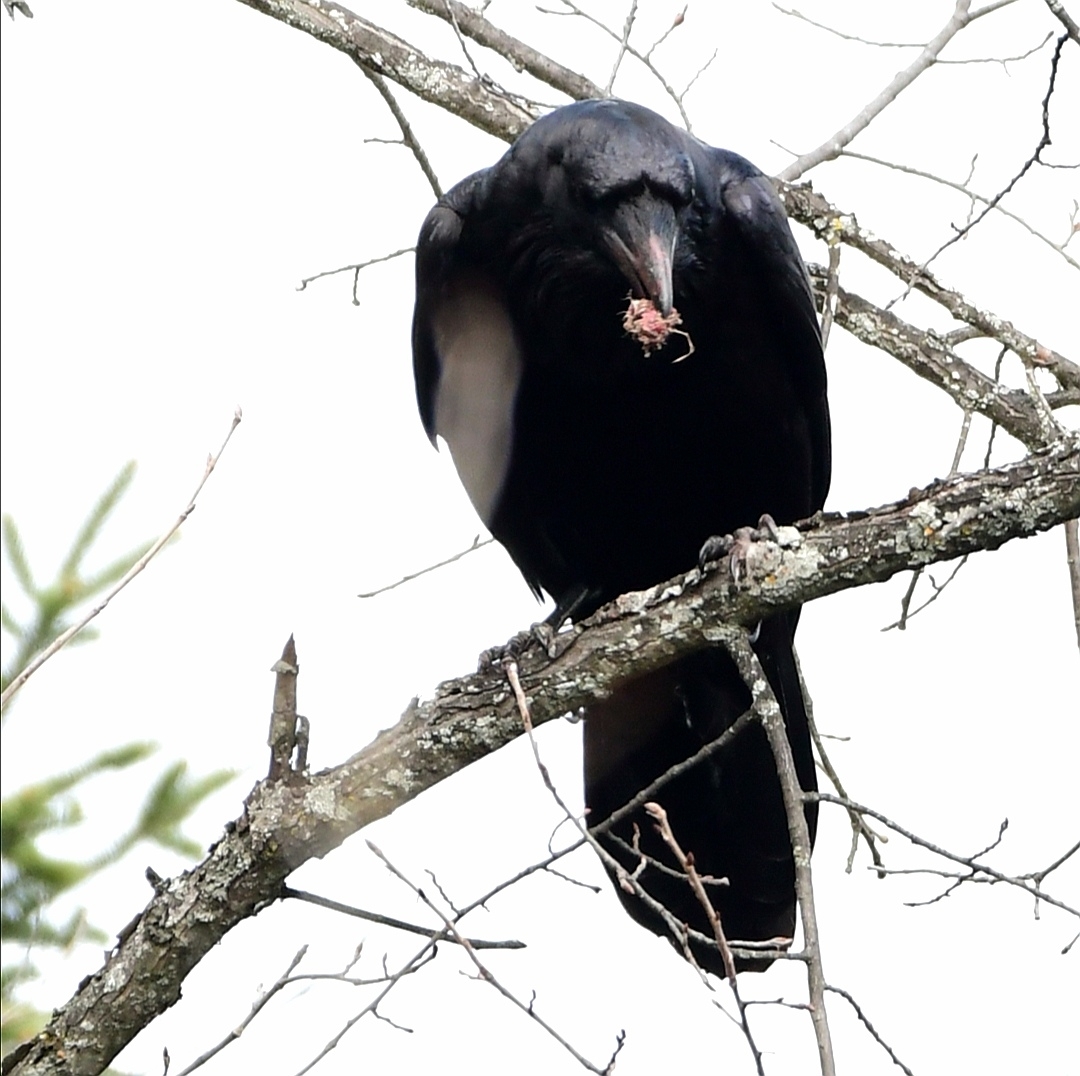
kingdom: Animalia
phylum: Chordata
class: Aves
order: Passeriformes
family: Corvidae
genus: Corvus
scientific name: Corvus corax
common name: Common raven
